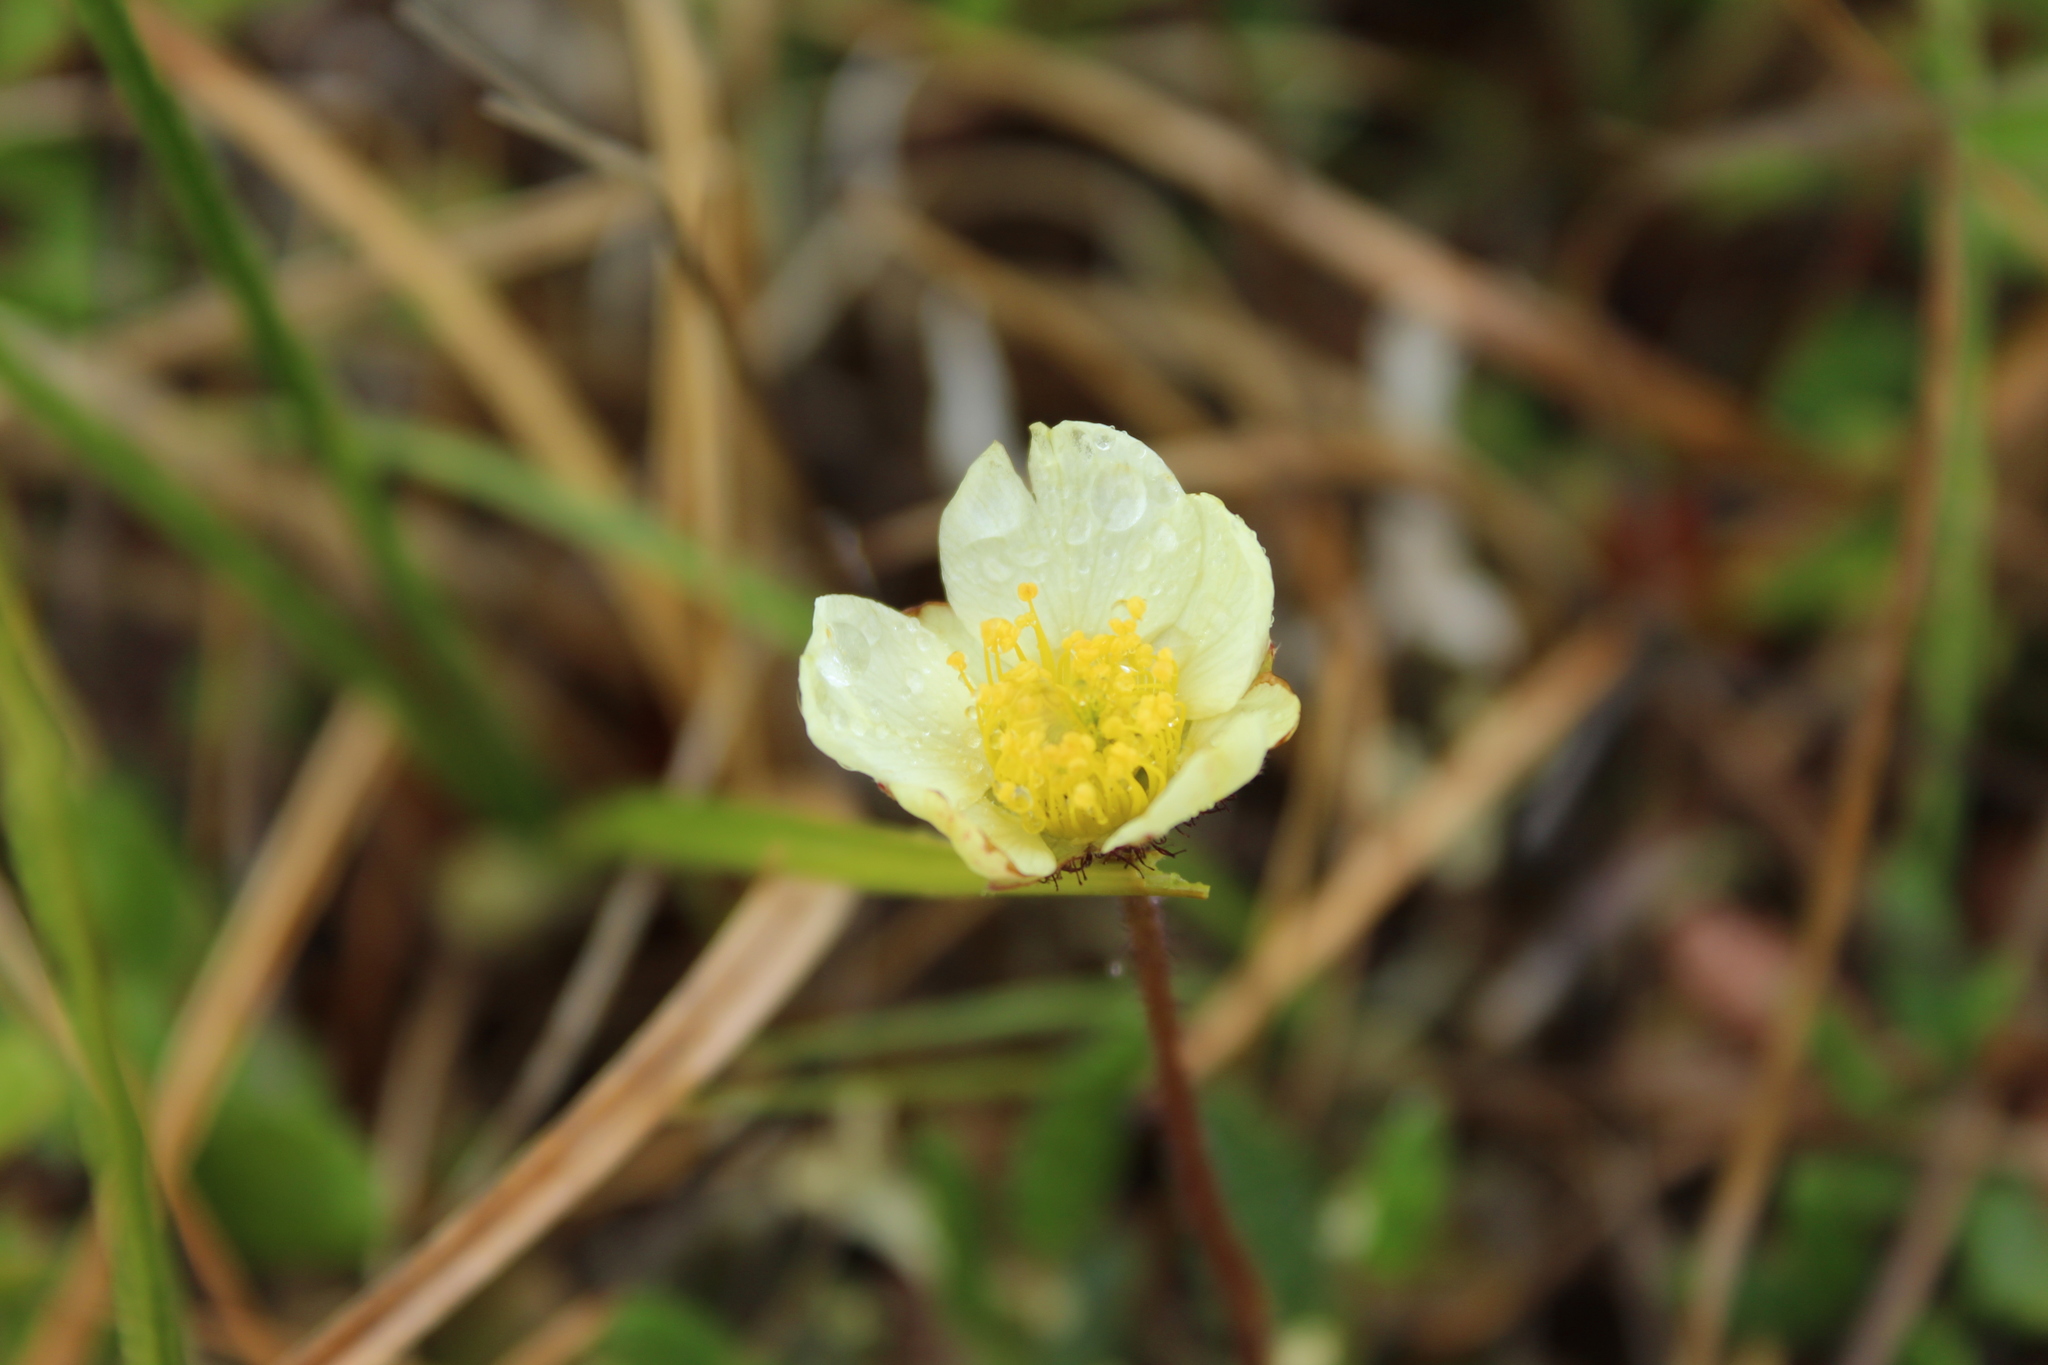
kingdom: Plantae
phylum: Tracheophyta
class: Magnoliopsida
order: Rosales
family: Rosaceae
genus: Dryas
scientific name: Dryas octopetala
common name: Eight-petal mountain-avens
